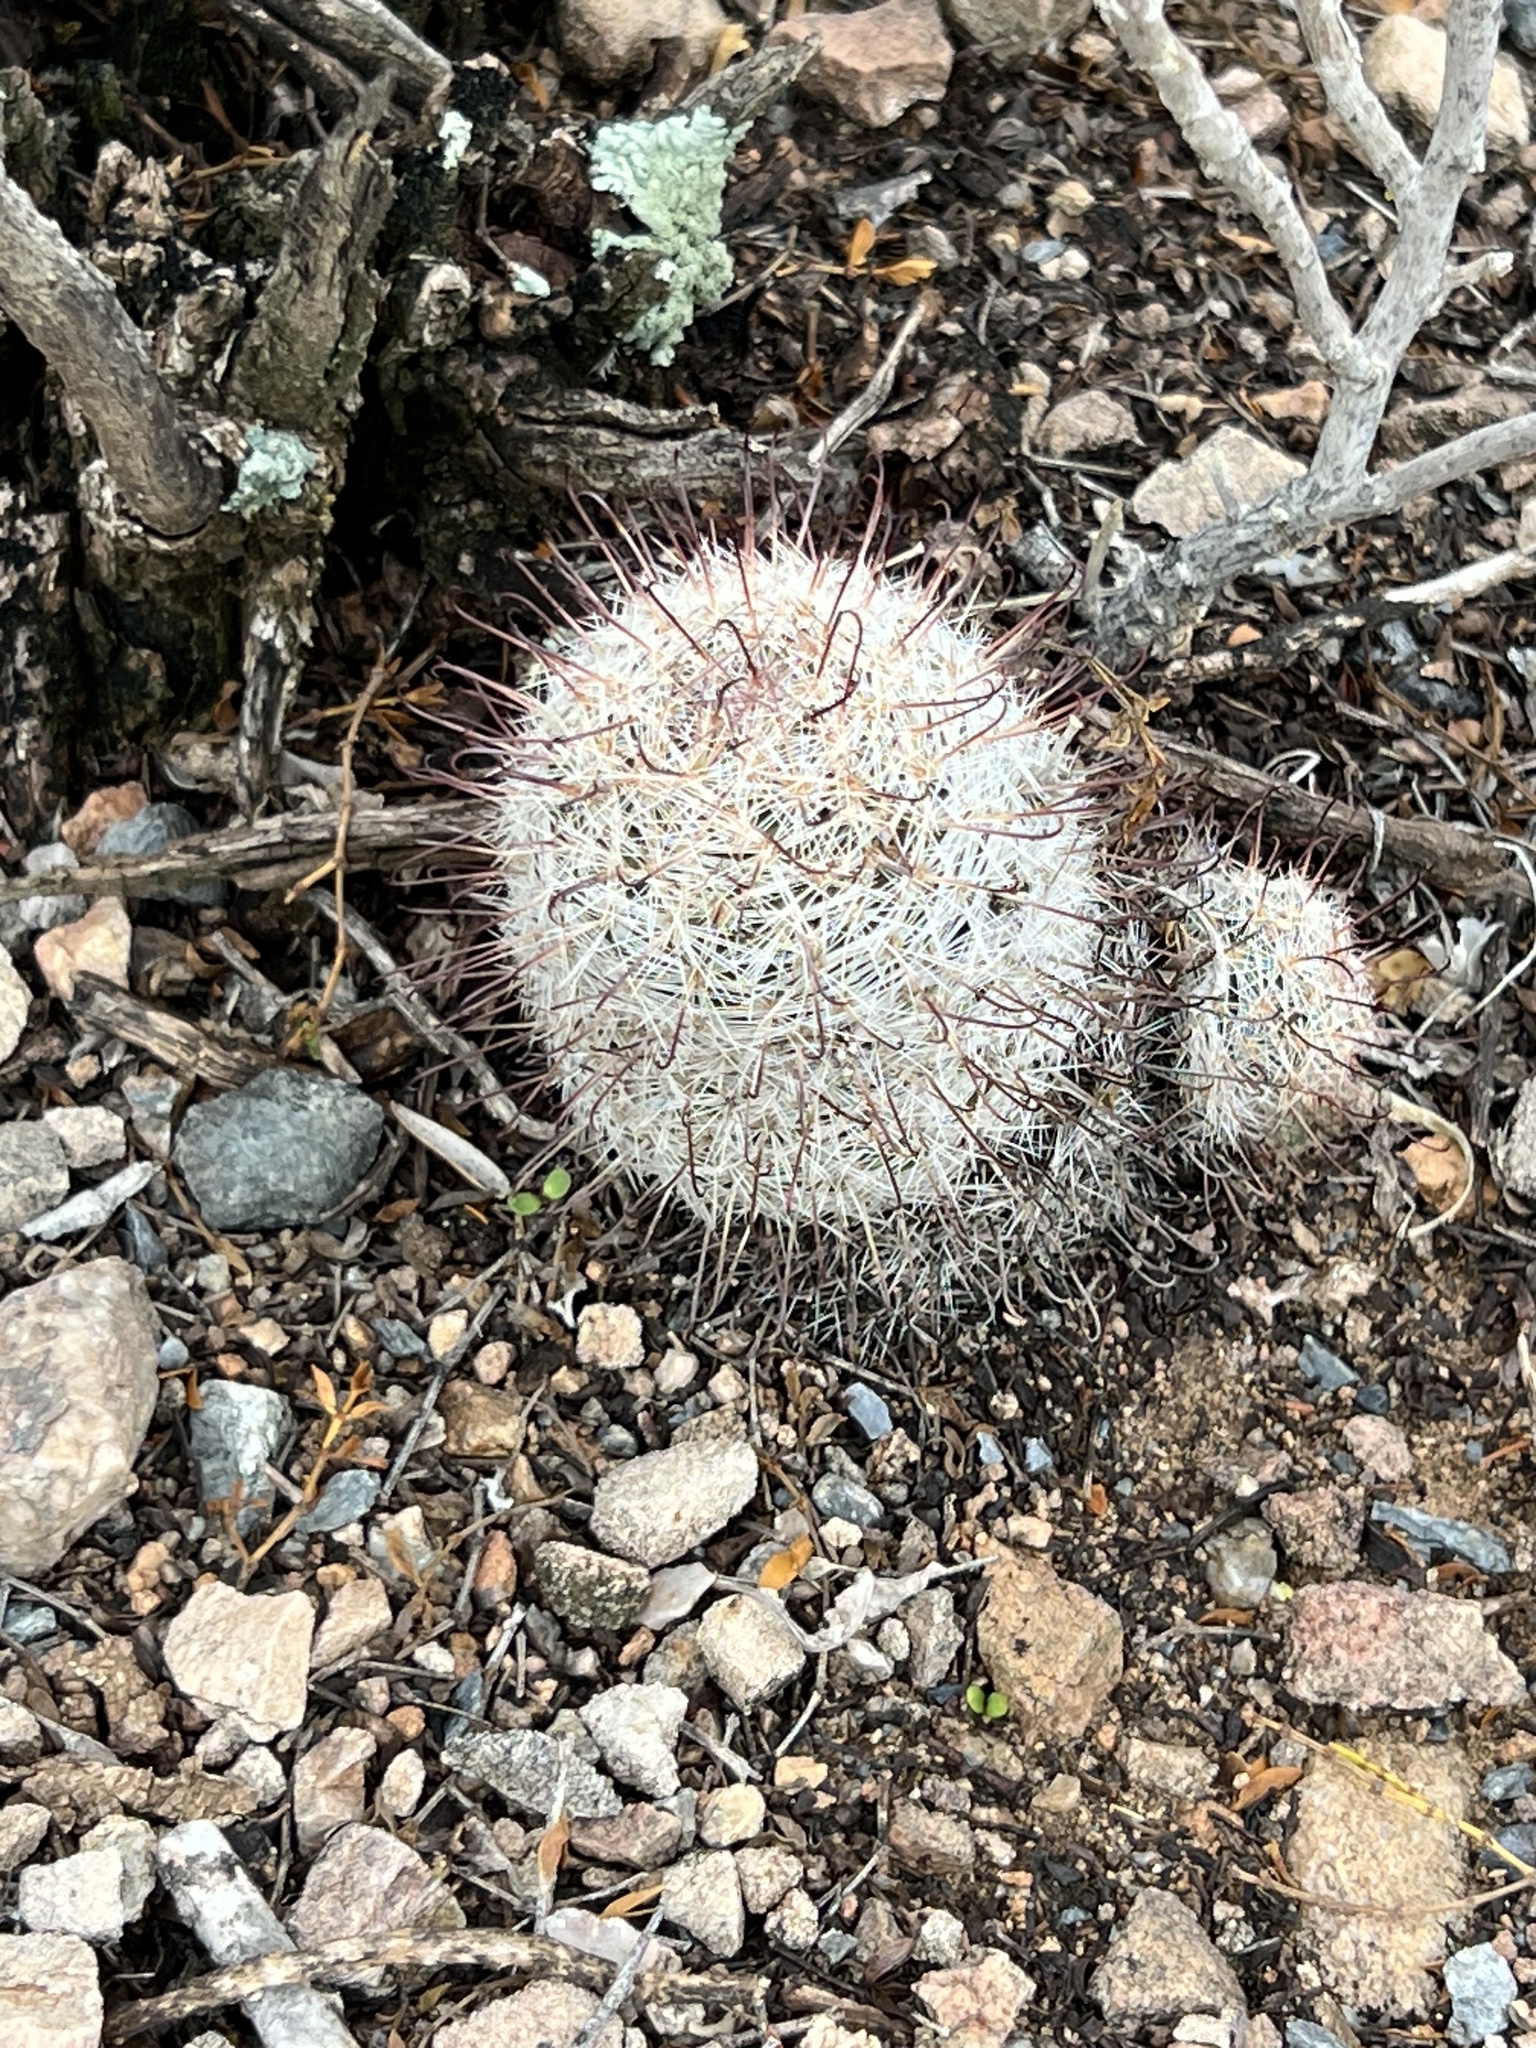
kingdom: Plantae
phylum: Tracheophyta
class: Magnoliopsida
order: Caryophyllales
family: Cactaceae
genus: Cochemiea
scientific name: Cochemiea grahamii
